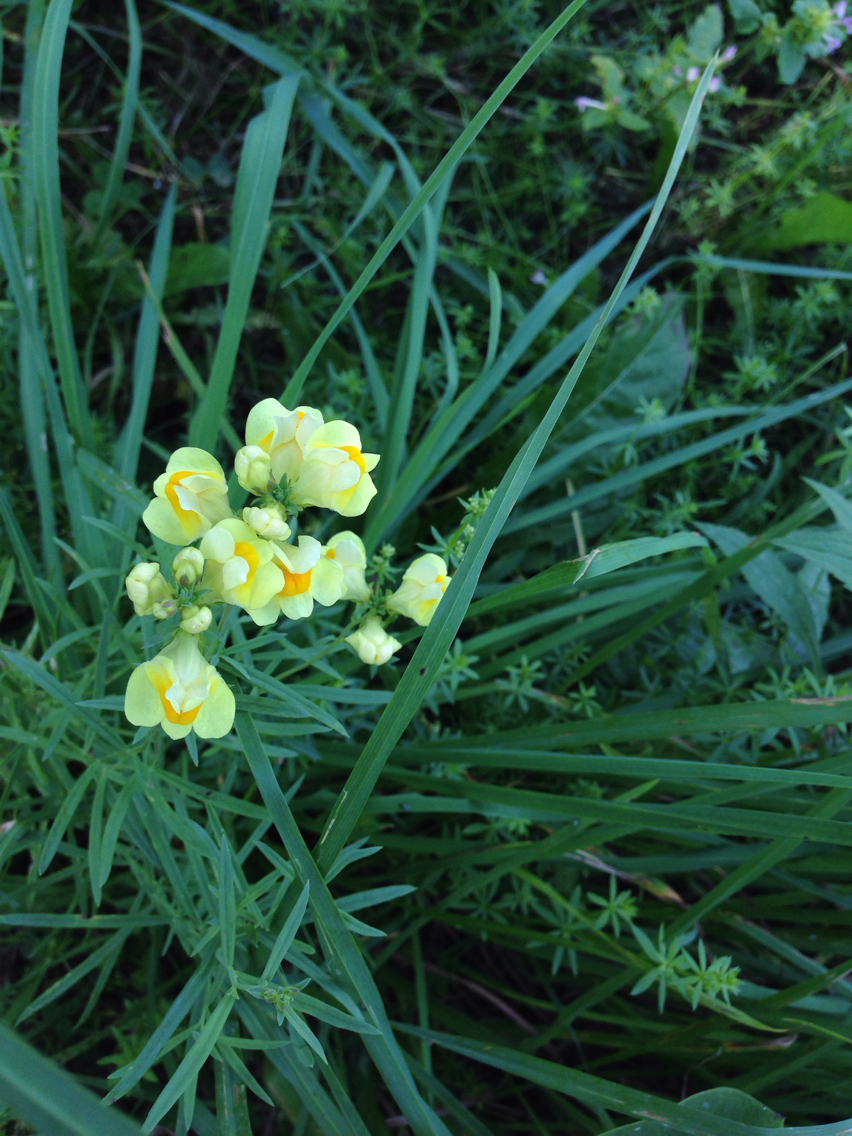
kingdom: Plantae
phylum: Tracheophyta
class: Magnoliopsida
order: Lamiales
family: Plantaginaceae
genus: Linaria
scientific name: Linaria vulgaris
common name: Butter and eggs
